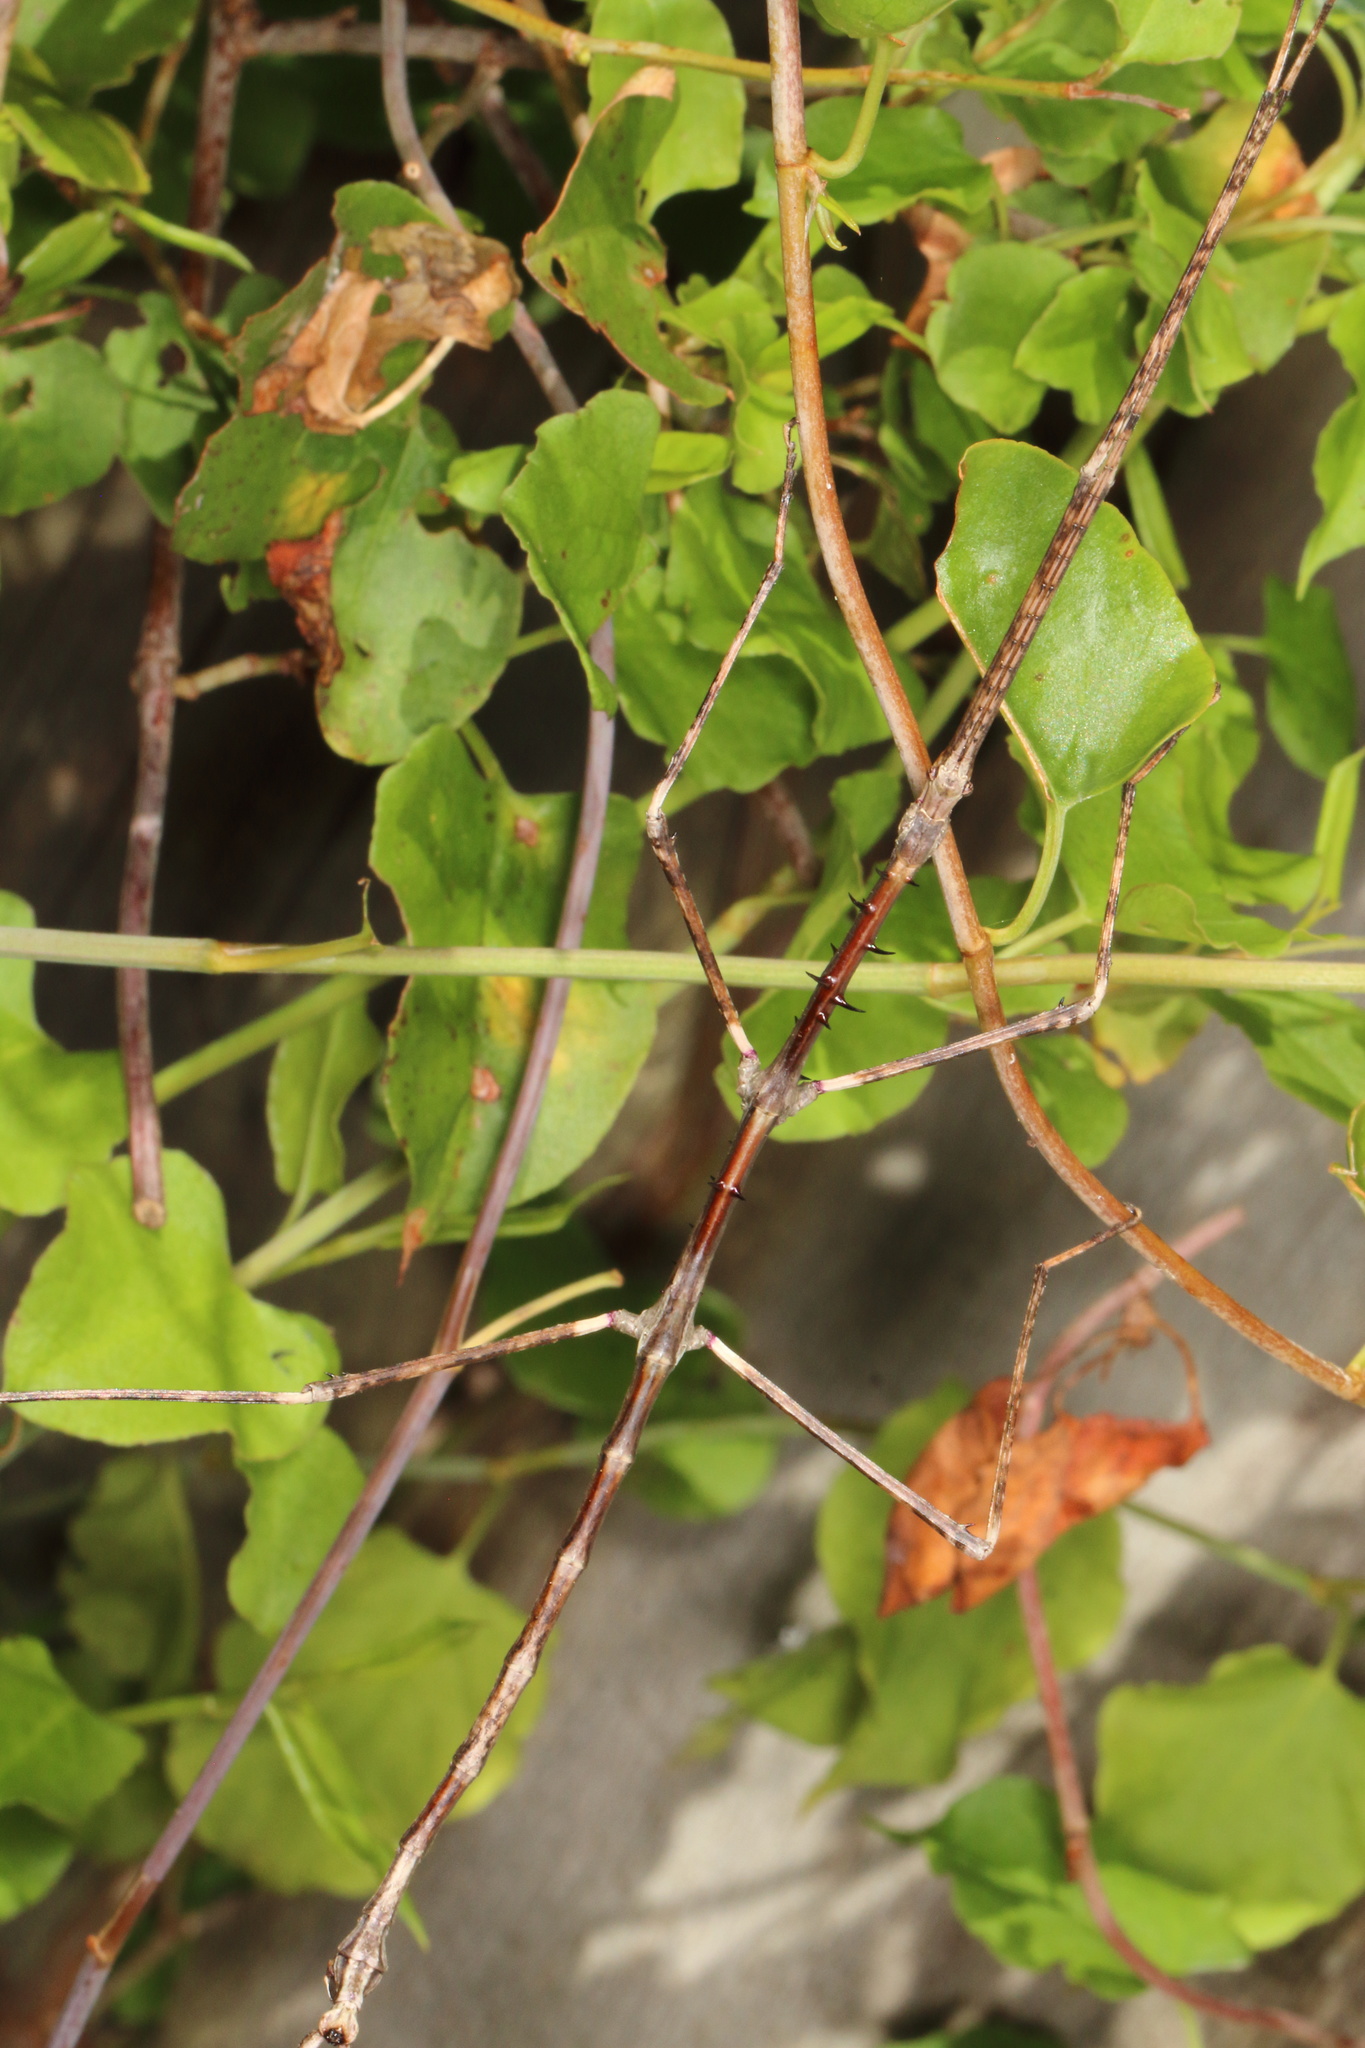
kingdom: Animalia
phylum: Arthropoda
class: Insecta
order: Phasmida
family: Phasmatidae
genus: Argosarchus
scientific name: Argosarchus horridus
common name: Bristly stick insect
